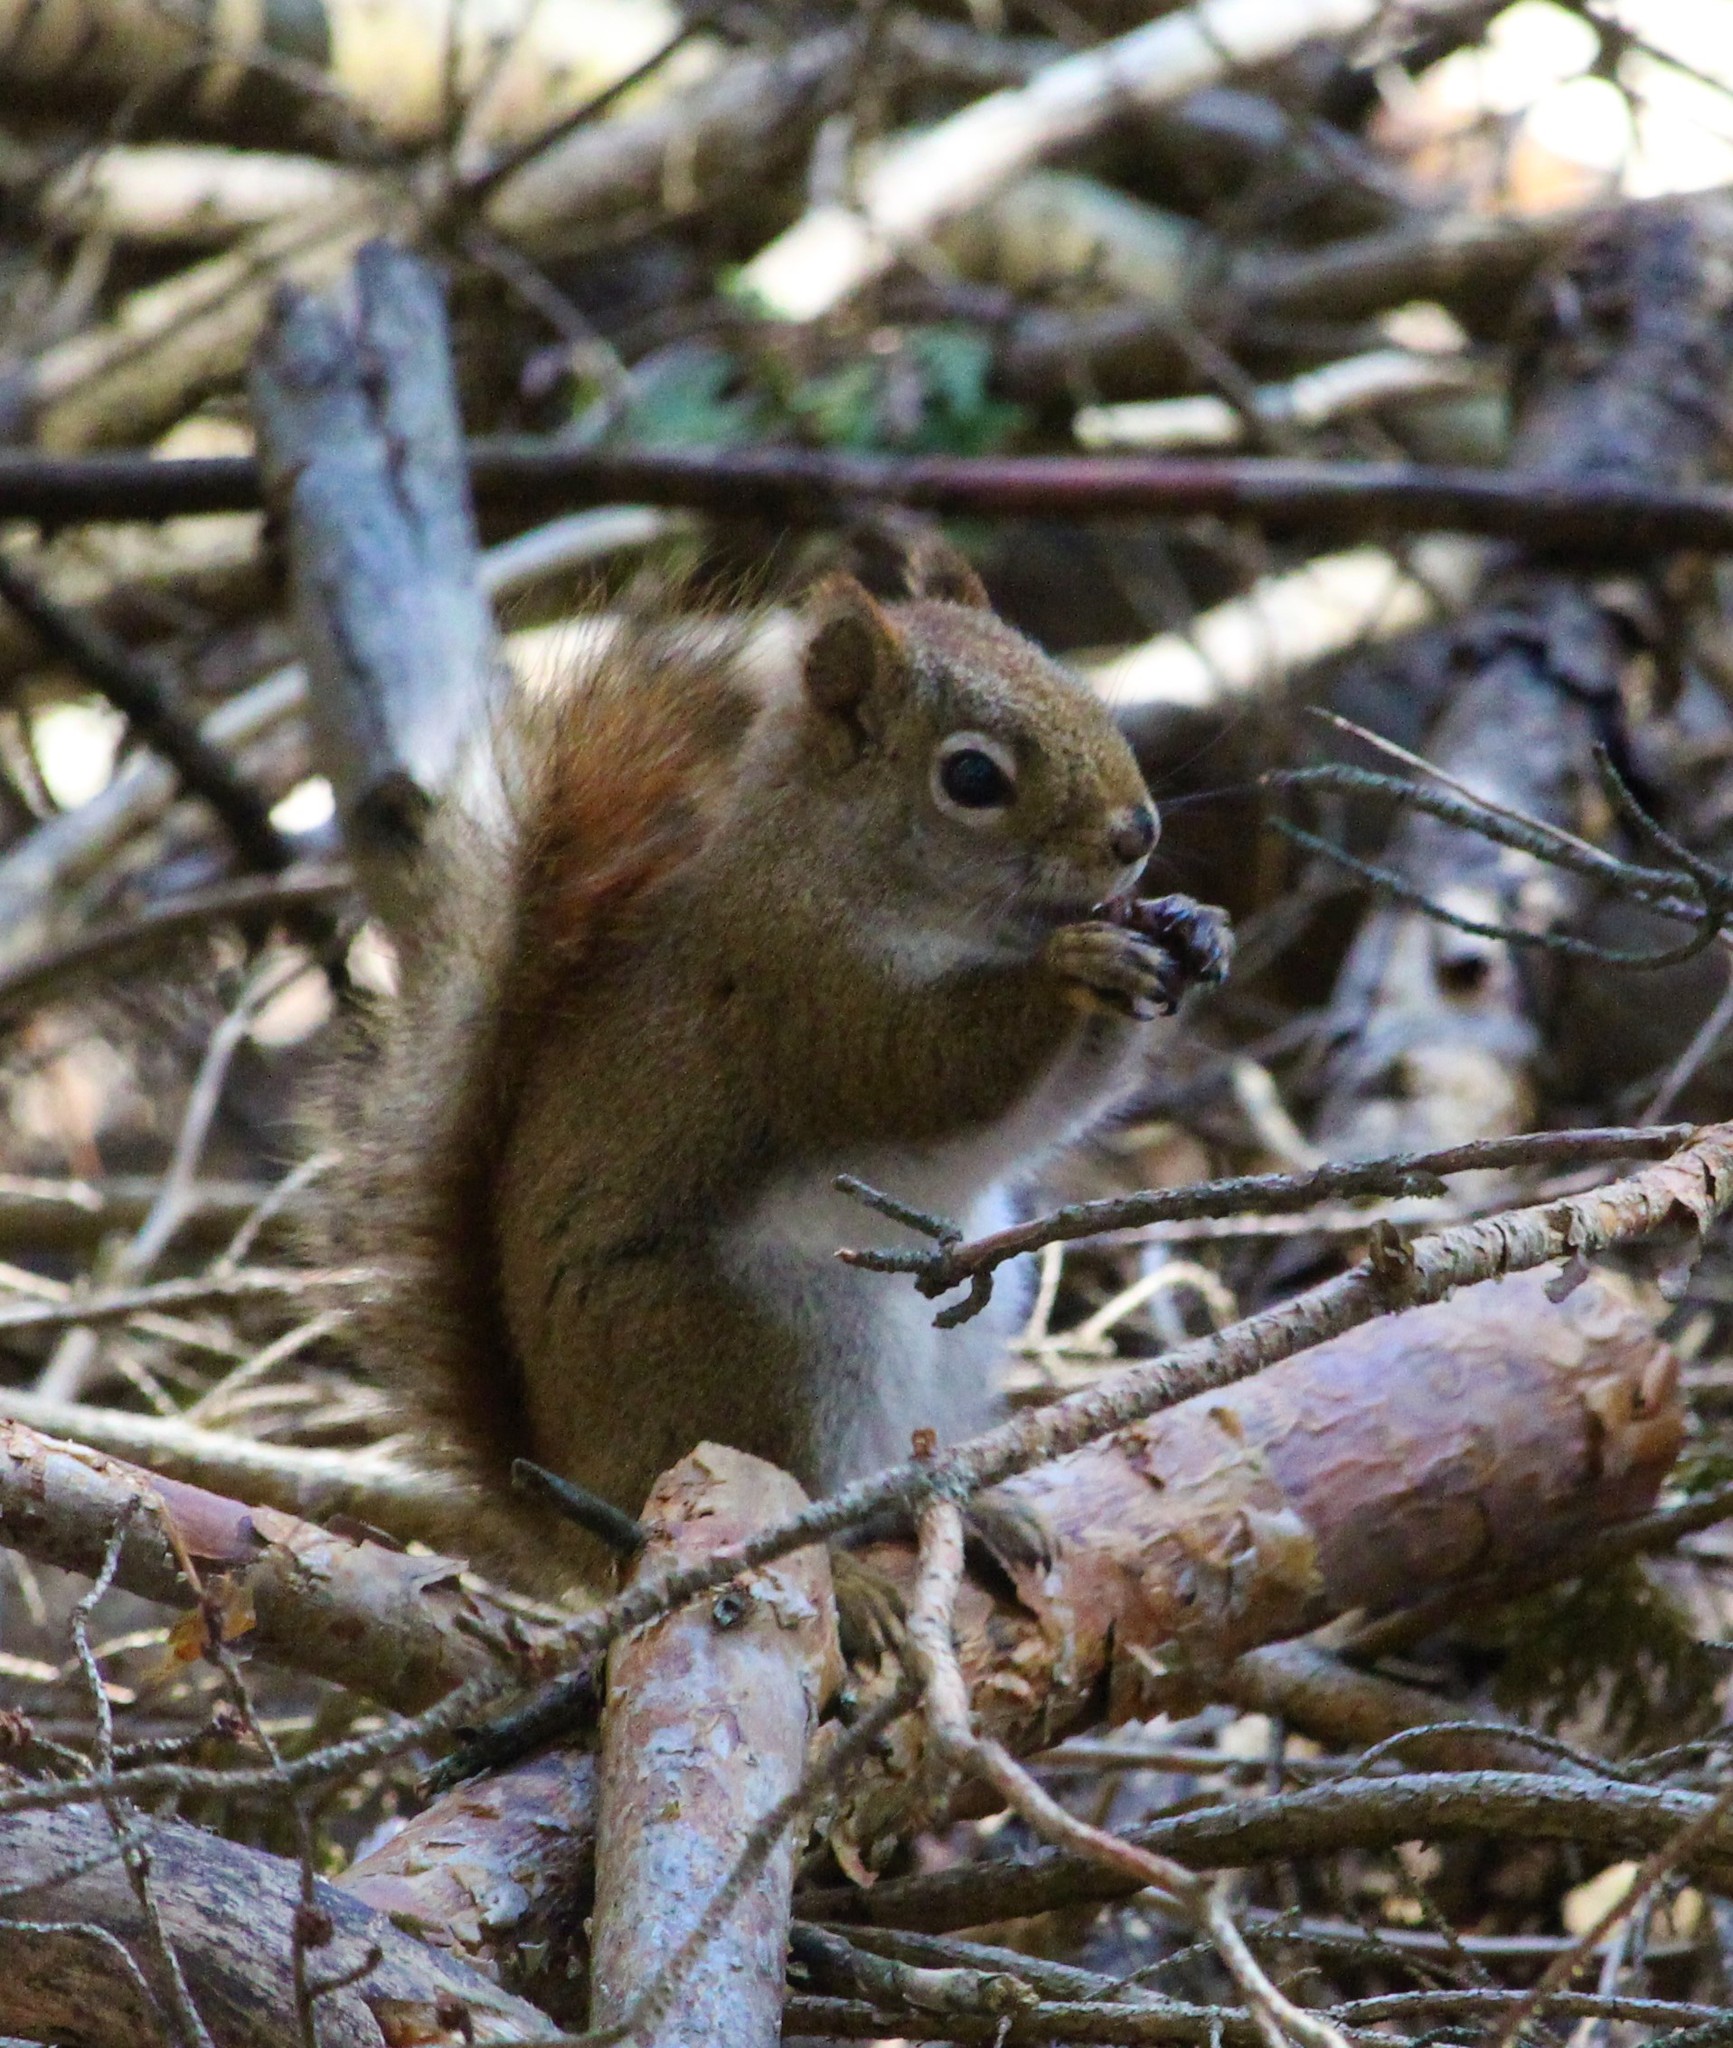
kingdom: Animalia
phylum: Chordata
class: Mammalia
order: Rodentia
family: Sciuridae
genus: Tamiasciurus
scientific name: Tamiasciurus hudsonicus
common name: Red squirrel
